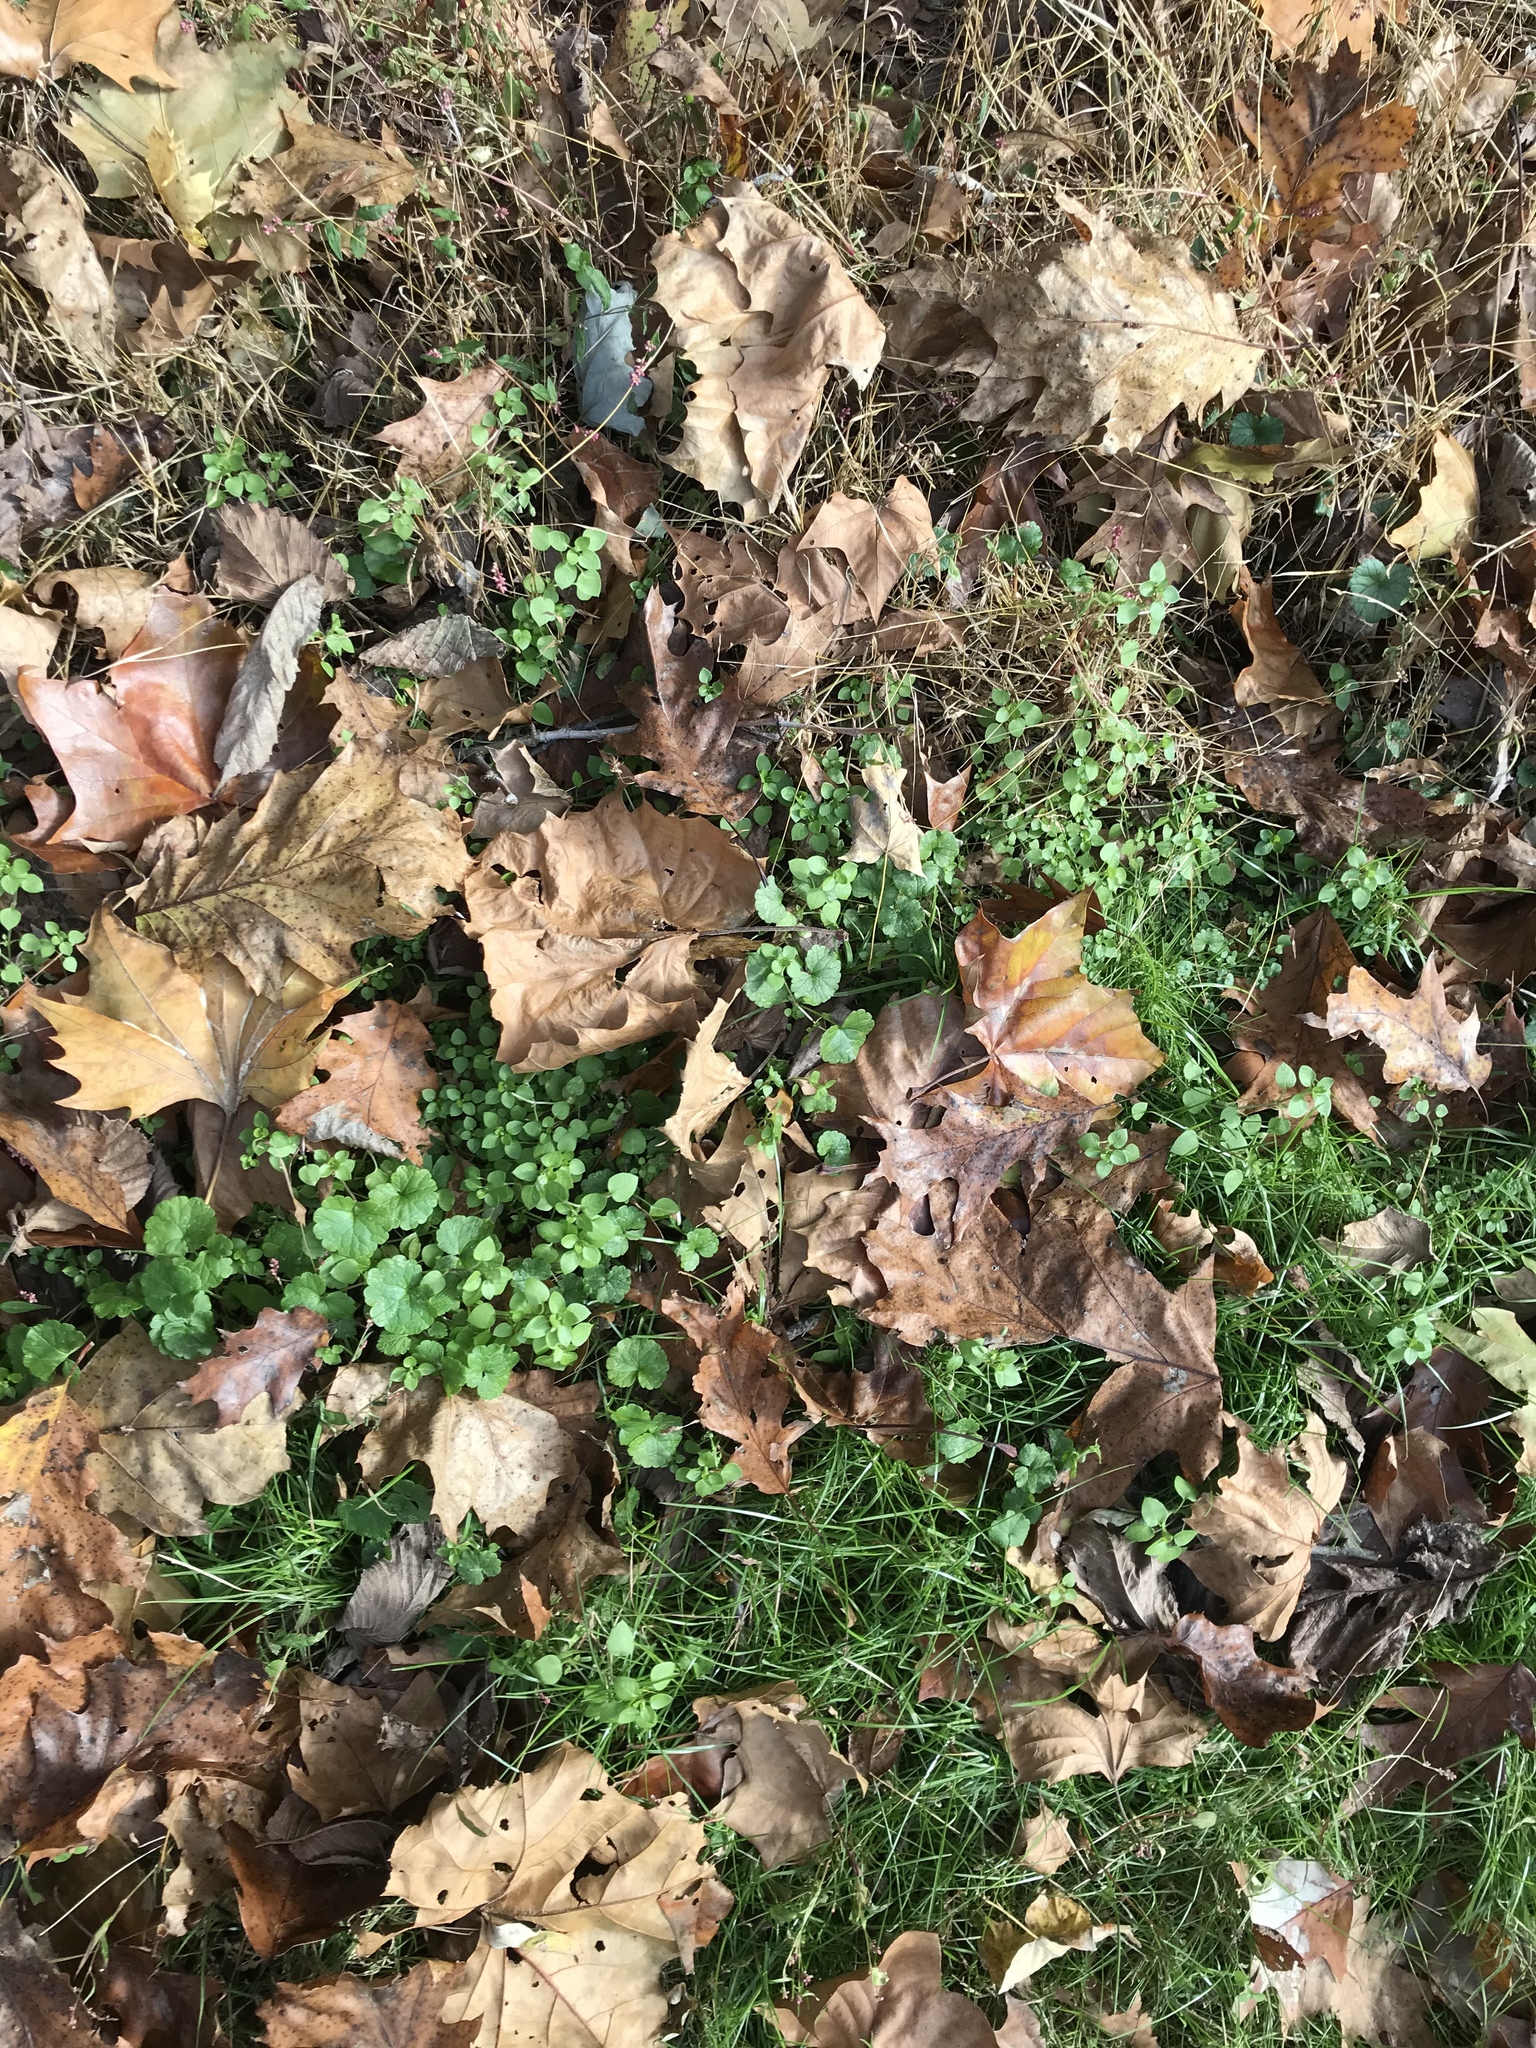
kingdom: Plantae
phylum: Tracheophyta
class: Magnoliopsida
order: Caryophyllales
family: Caryophyllaceae
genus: Stellaria
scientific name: Stellaria media
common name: Common chickweed
